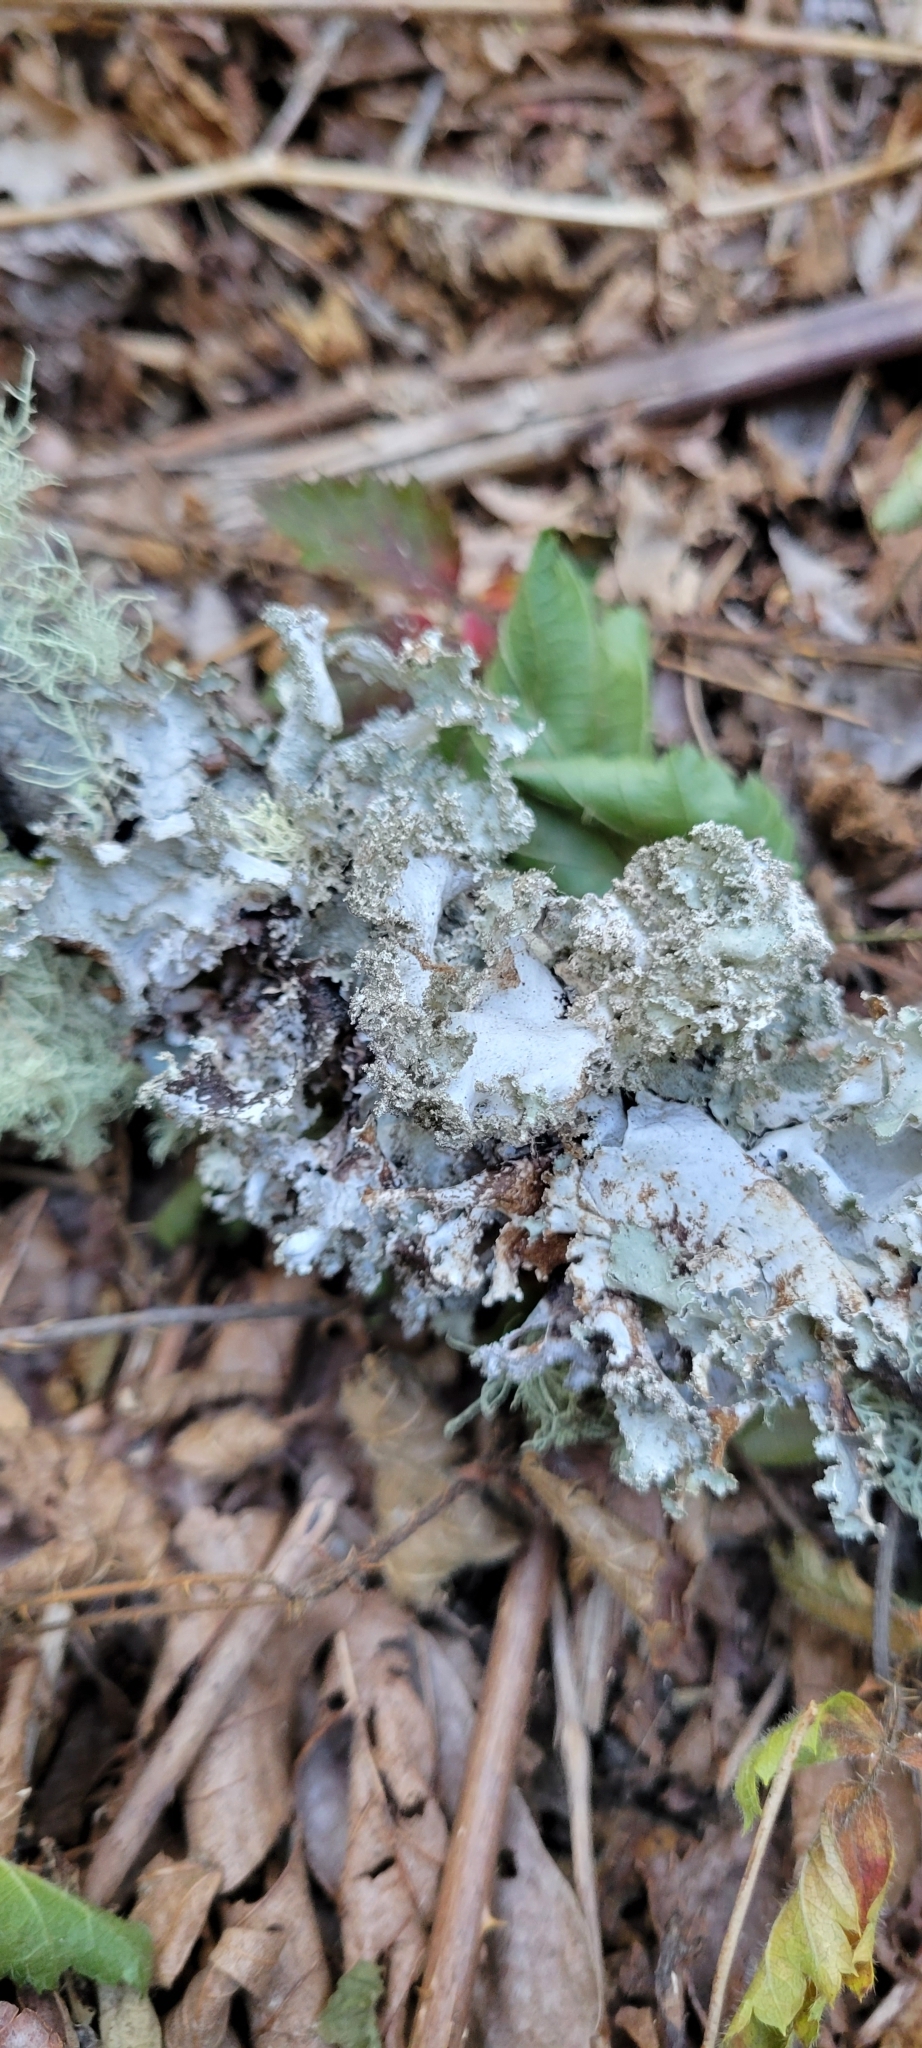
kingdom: Fungi
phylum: Ascomycota
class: Lecanoromycetes
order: Lecanorales
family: Parmeliaceae
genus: Platismatia
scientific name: Platismatia glauca
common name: Varied rag lichen
